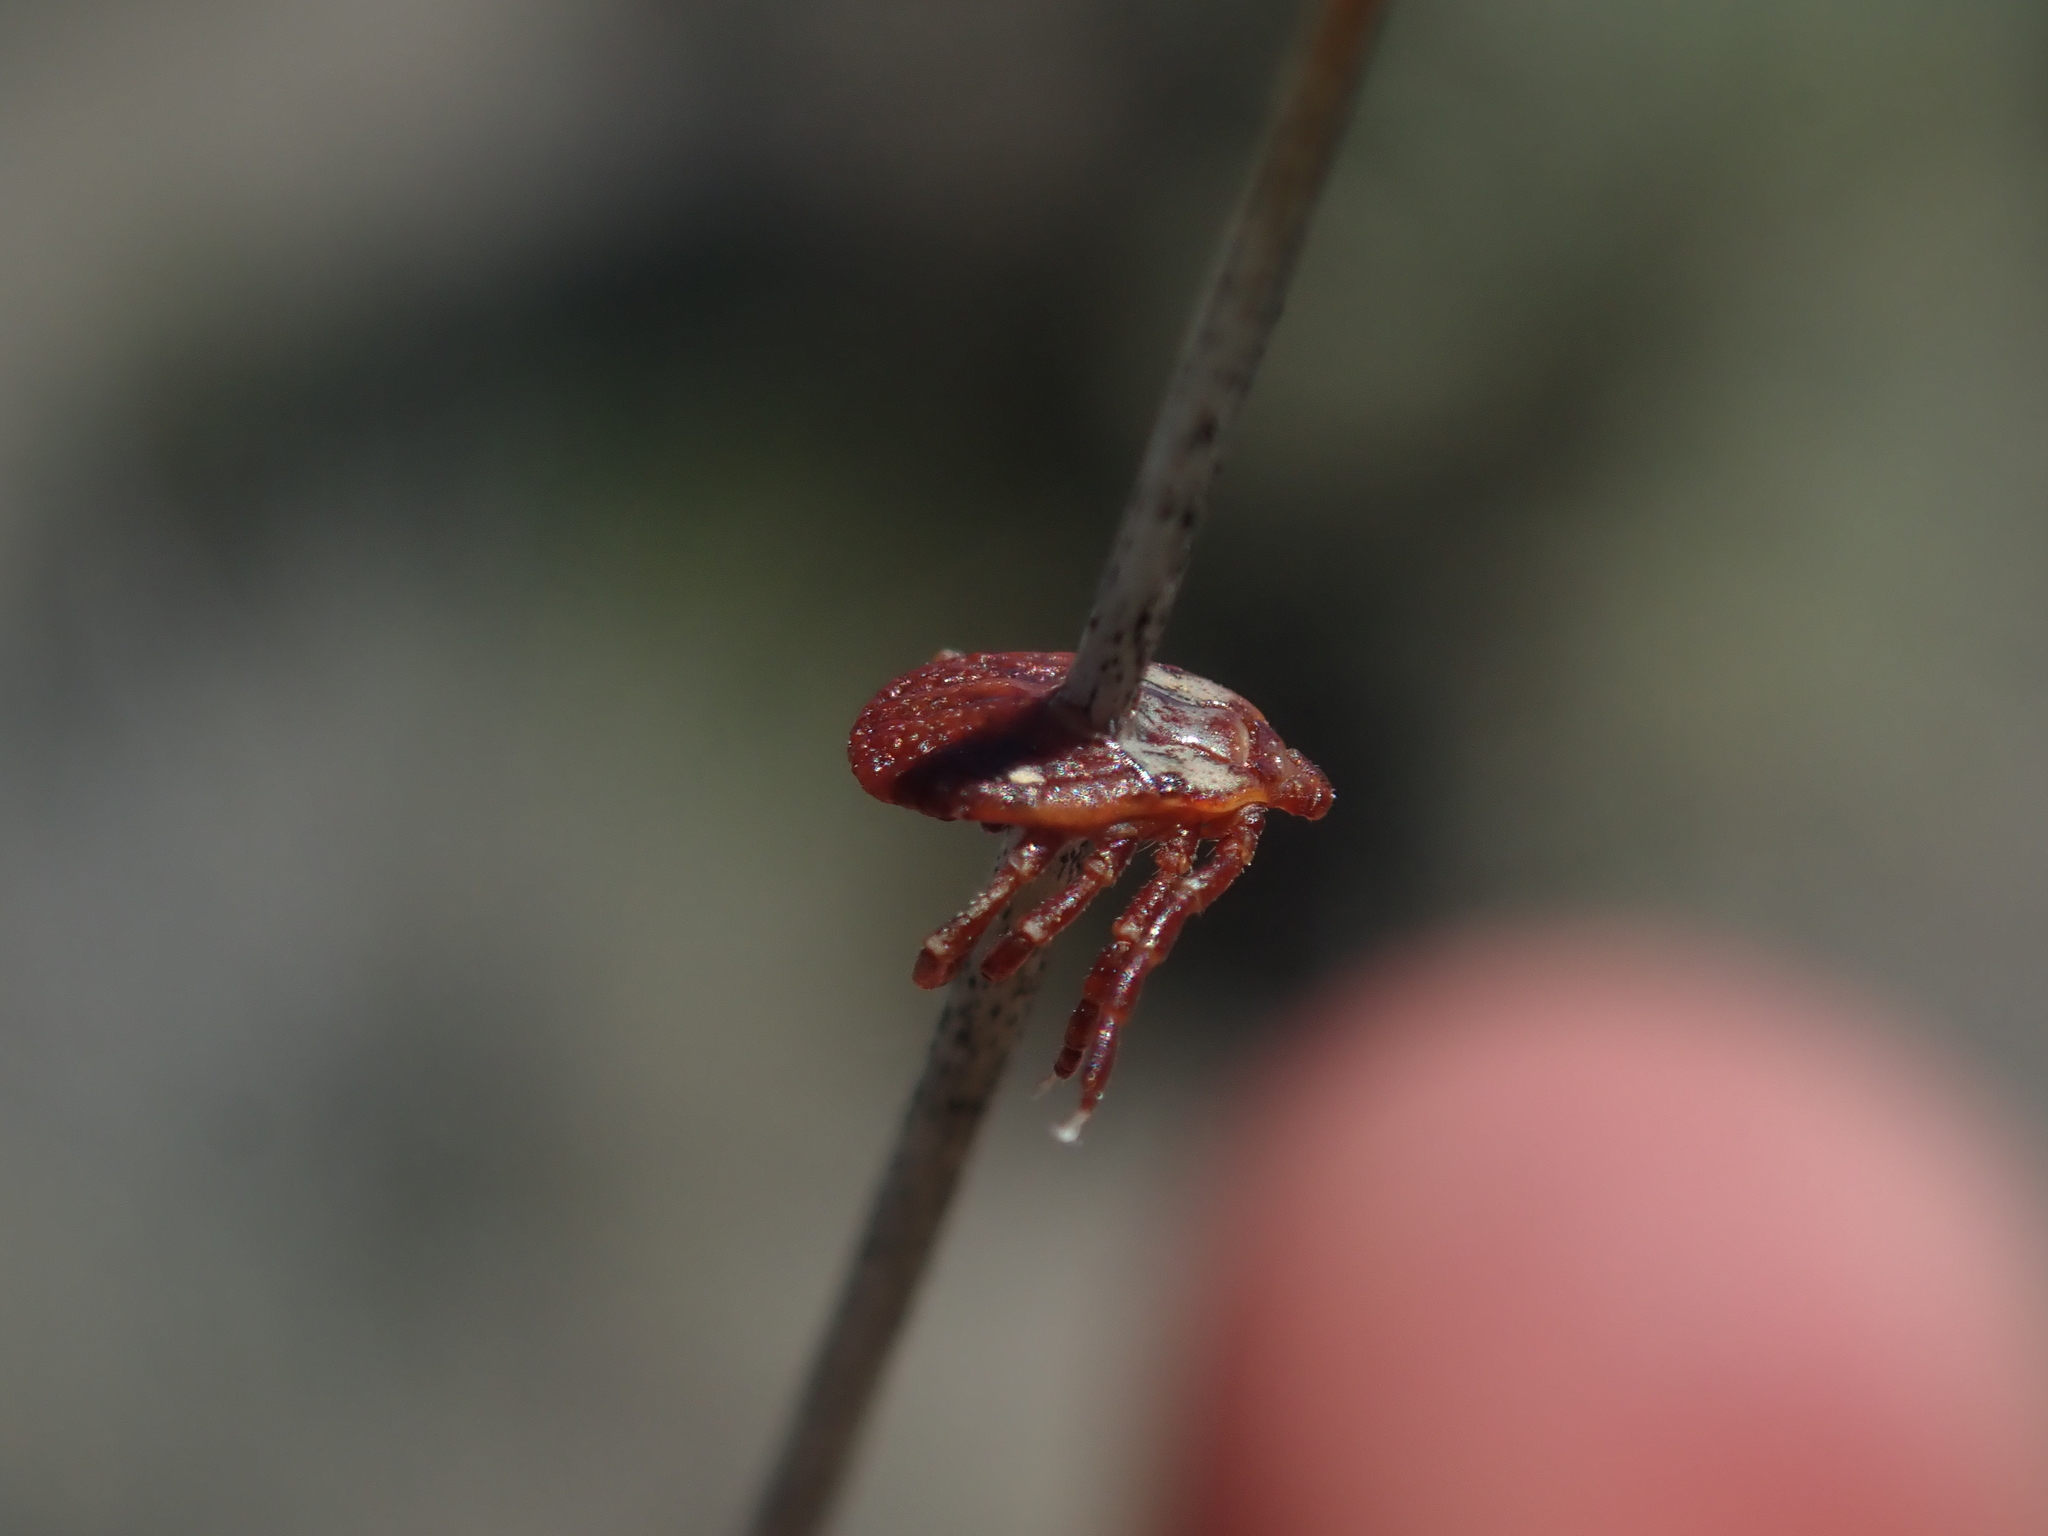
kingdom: Animalia
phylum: Arthropoda
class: Arachnida
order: Ixodida
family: Ixodidae
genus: Dermacentor
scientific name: Dermacentor variabilis
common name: American dog tick
